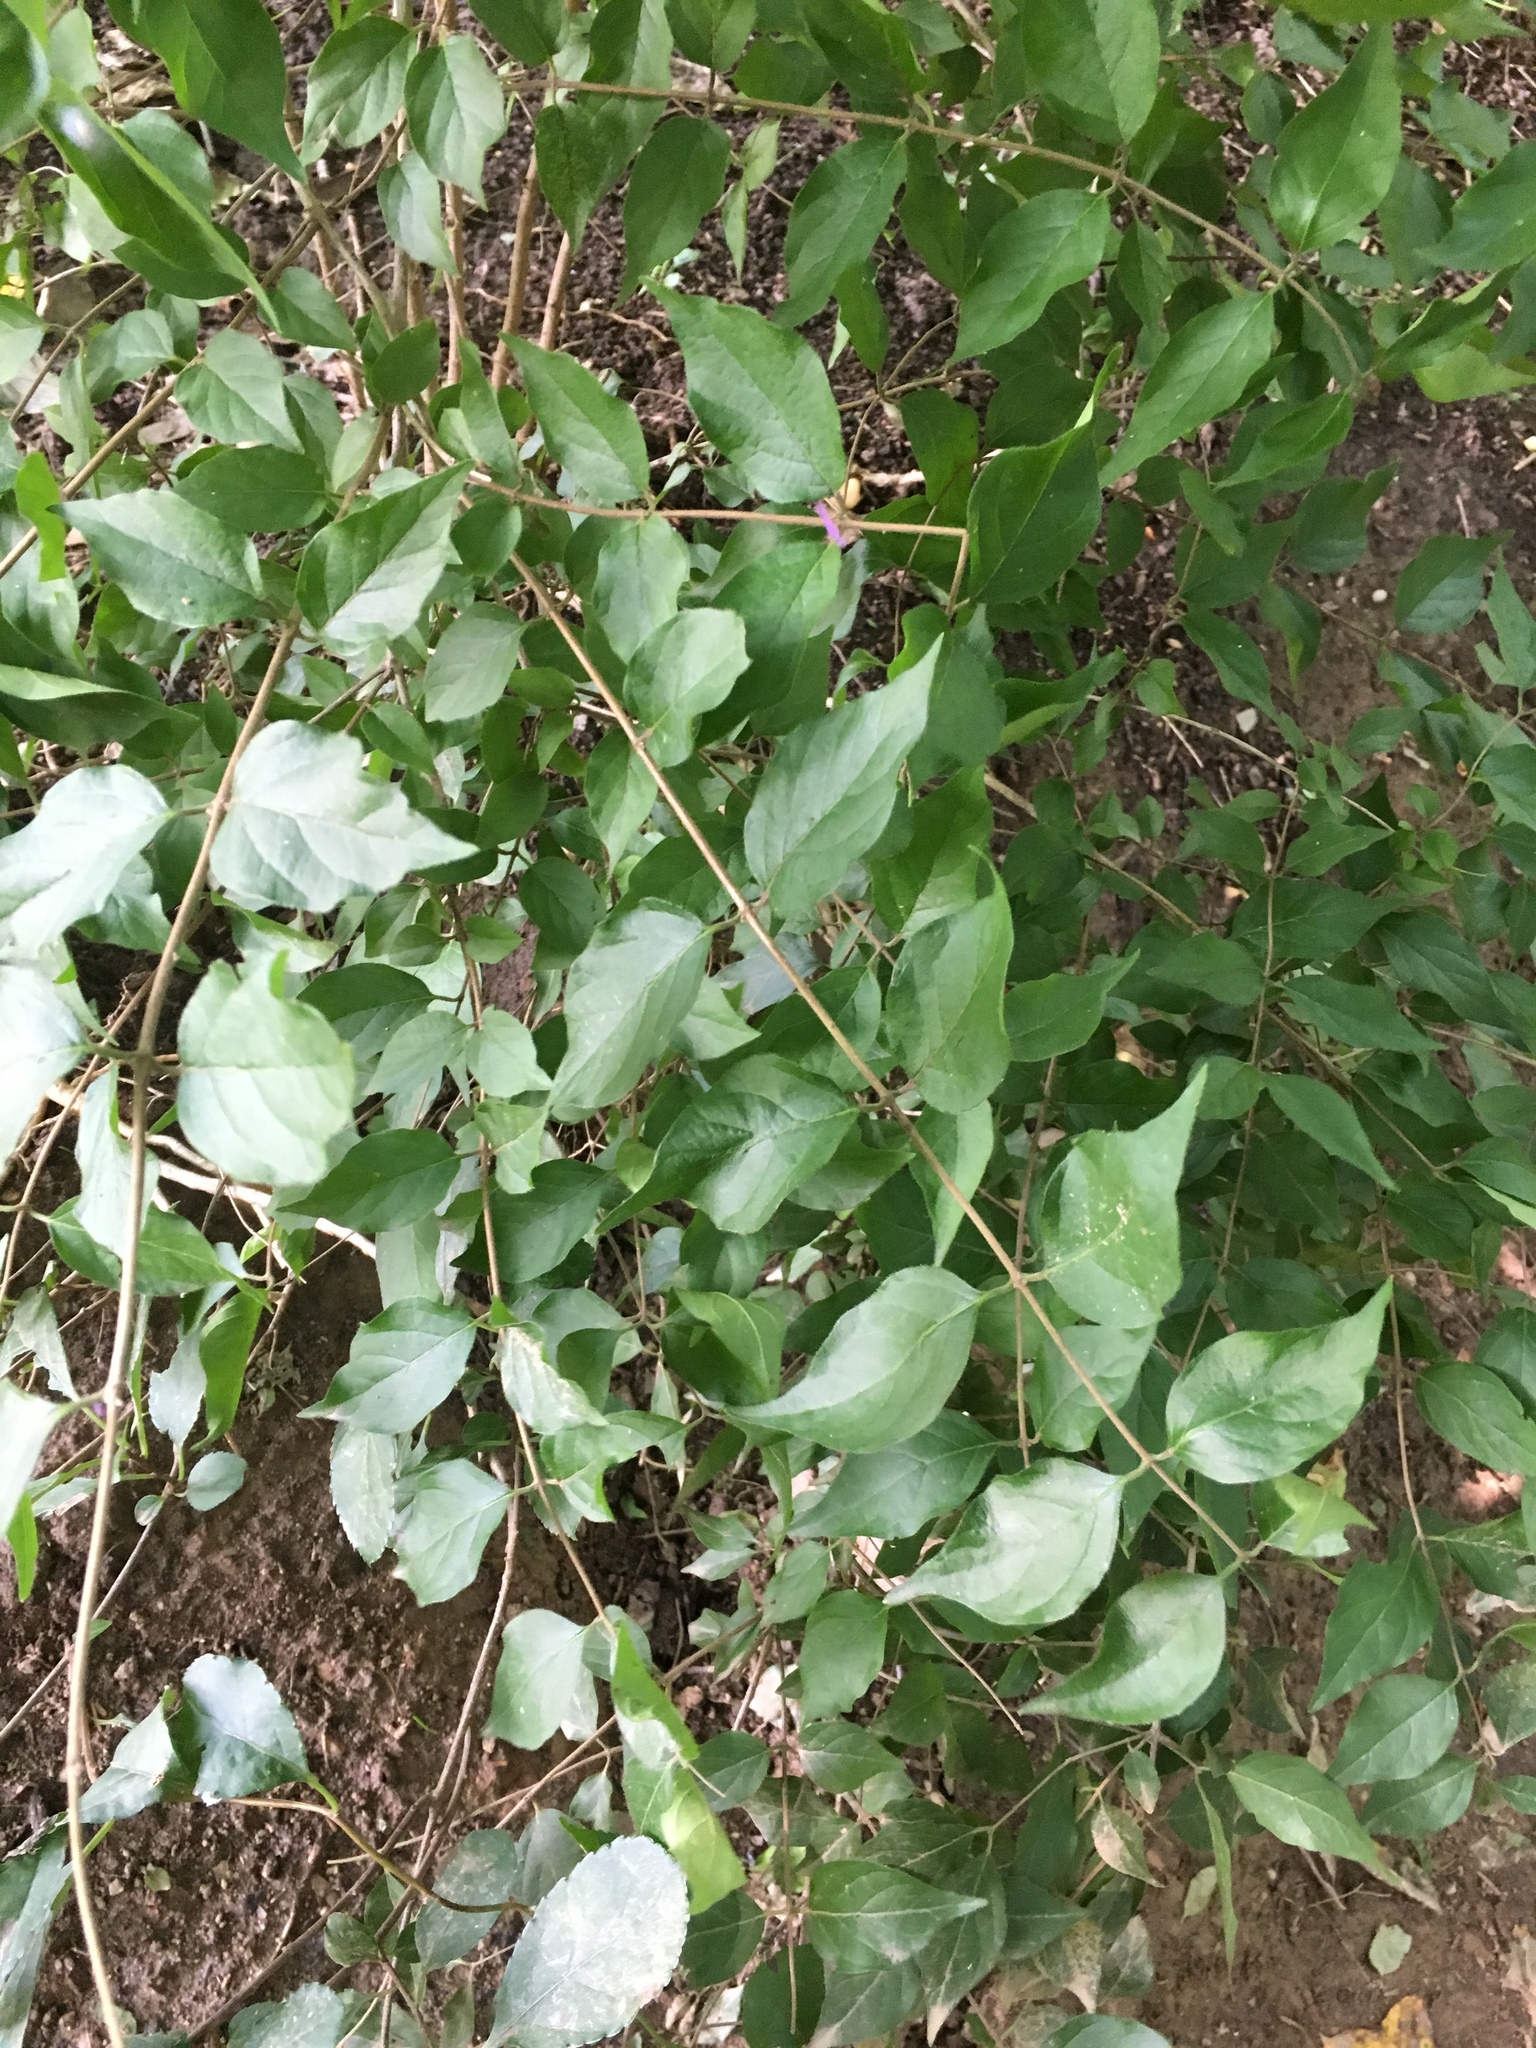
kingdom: Plantae
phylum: Tracheophyta
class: Magnoliopsida
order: Dipsacales
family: Caprifoliaceae
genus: Lonicera
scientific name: Lonicera maackii
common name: Amur honeysuckle
